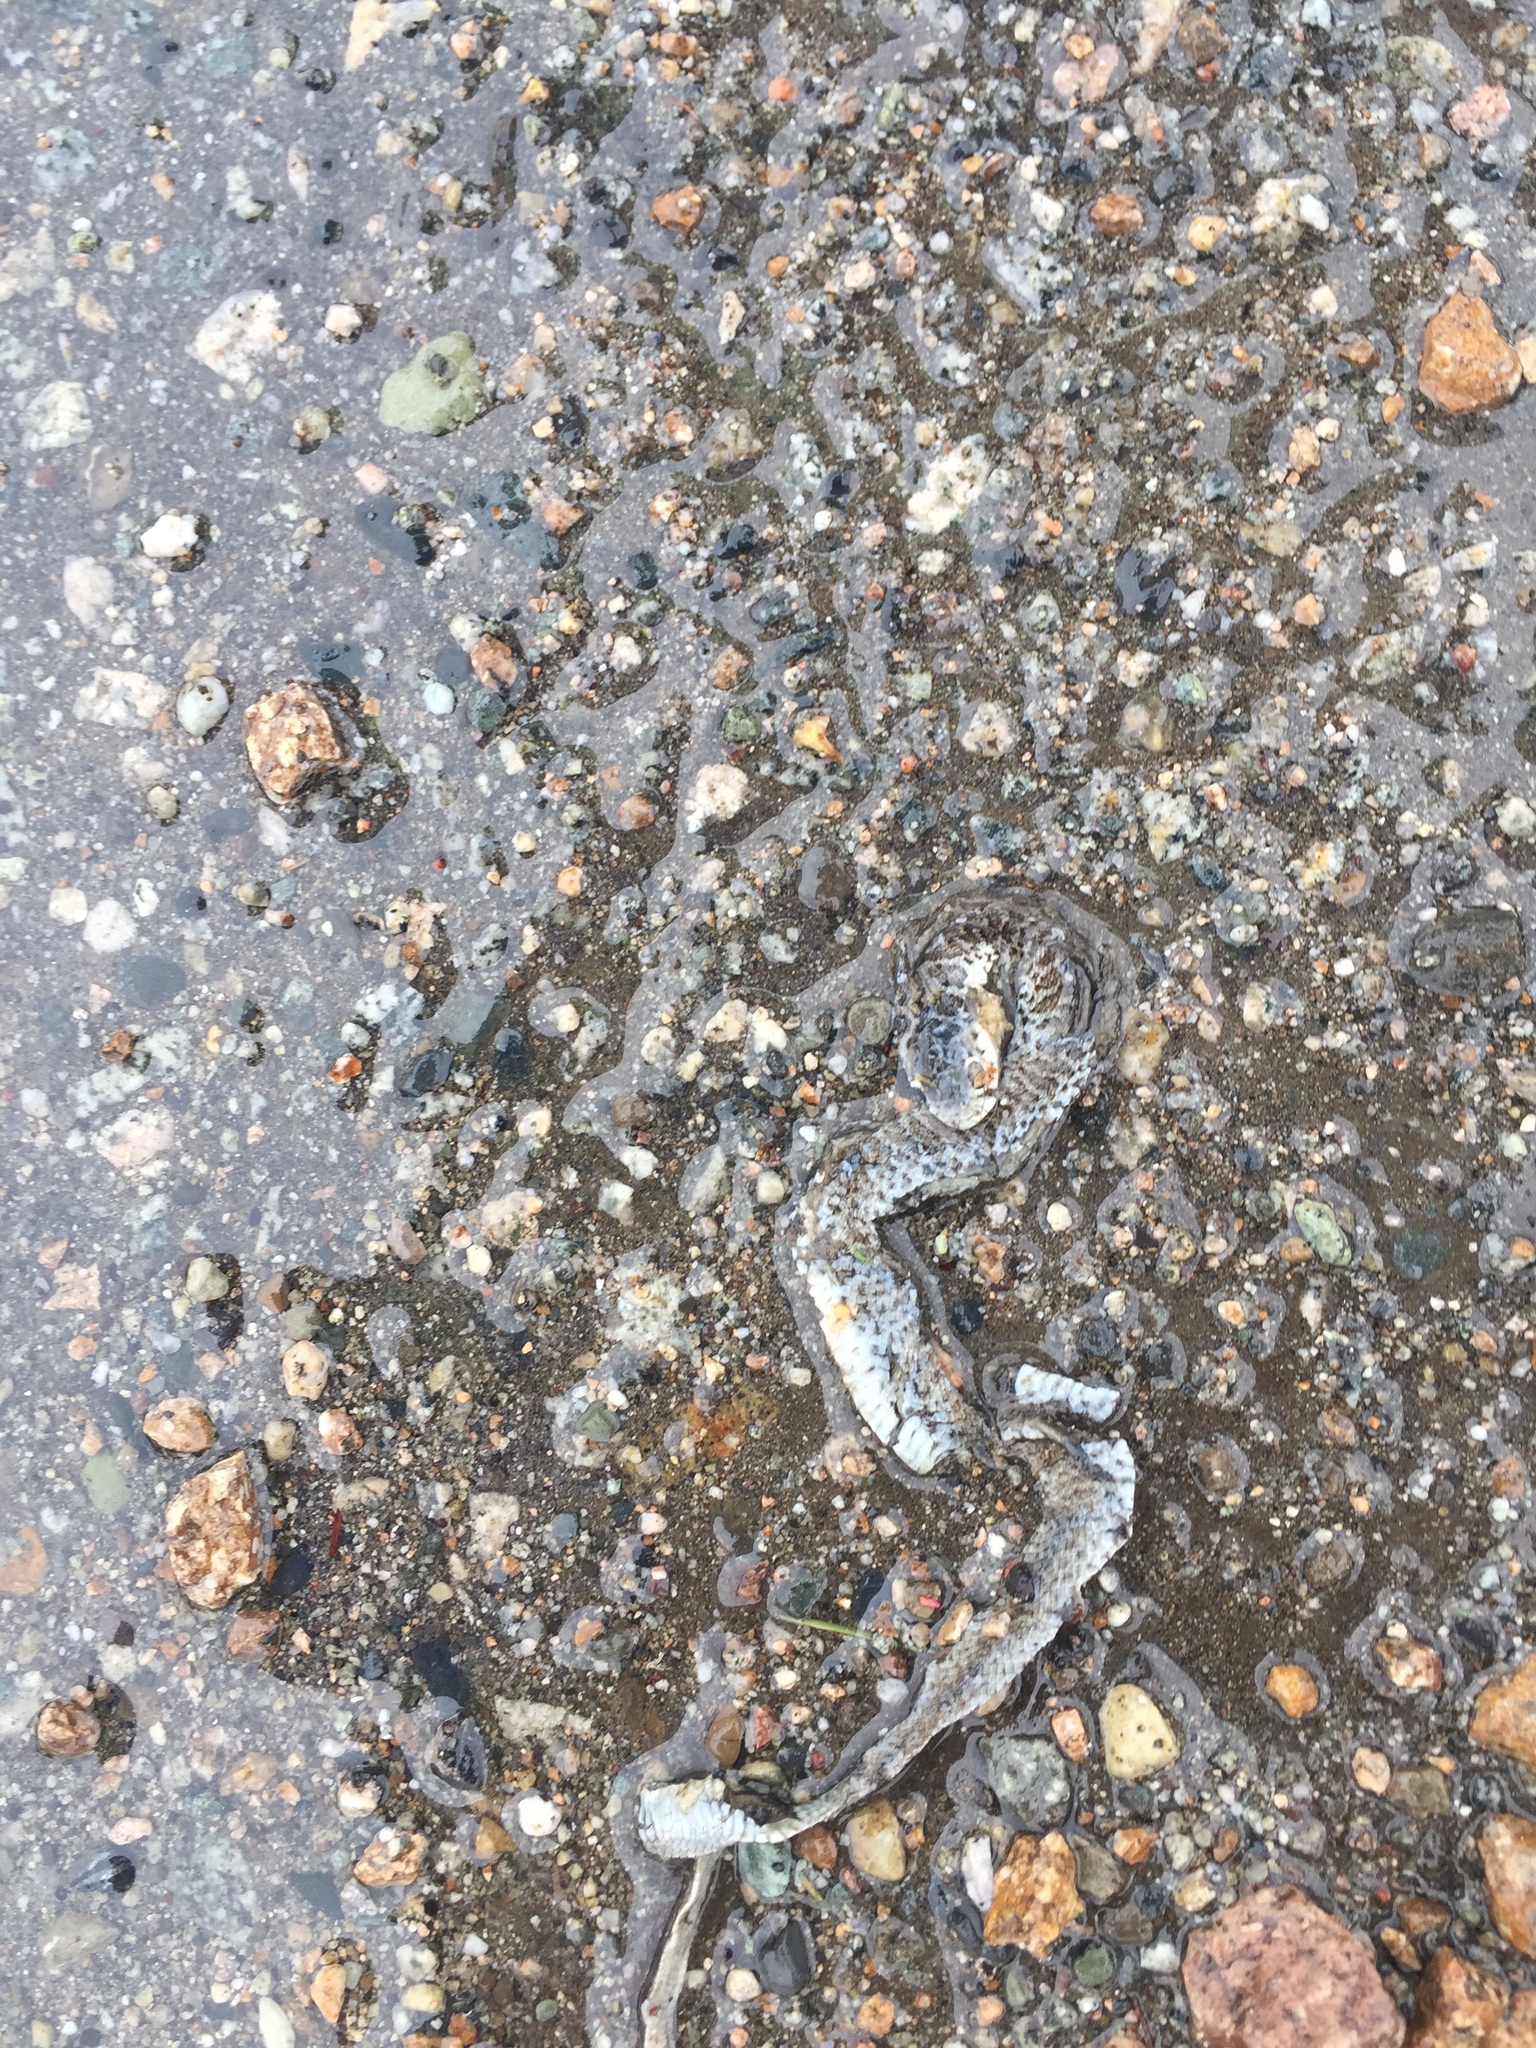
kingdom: Animalia
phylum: Chordata
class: Squamata
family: Colubridae
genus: Coluber
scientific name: Coluber constrictor
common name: Eastern racer
